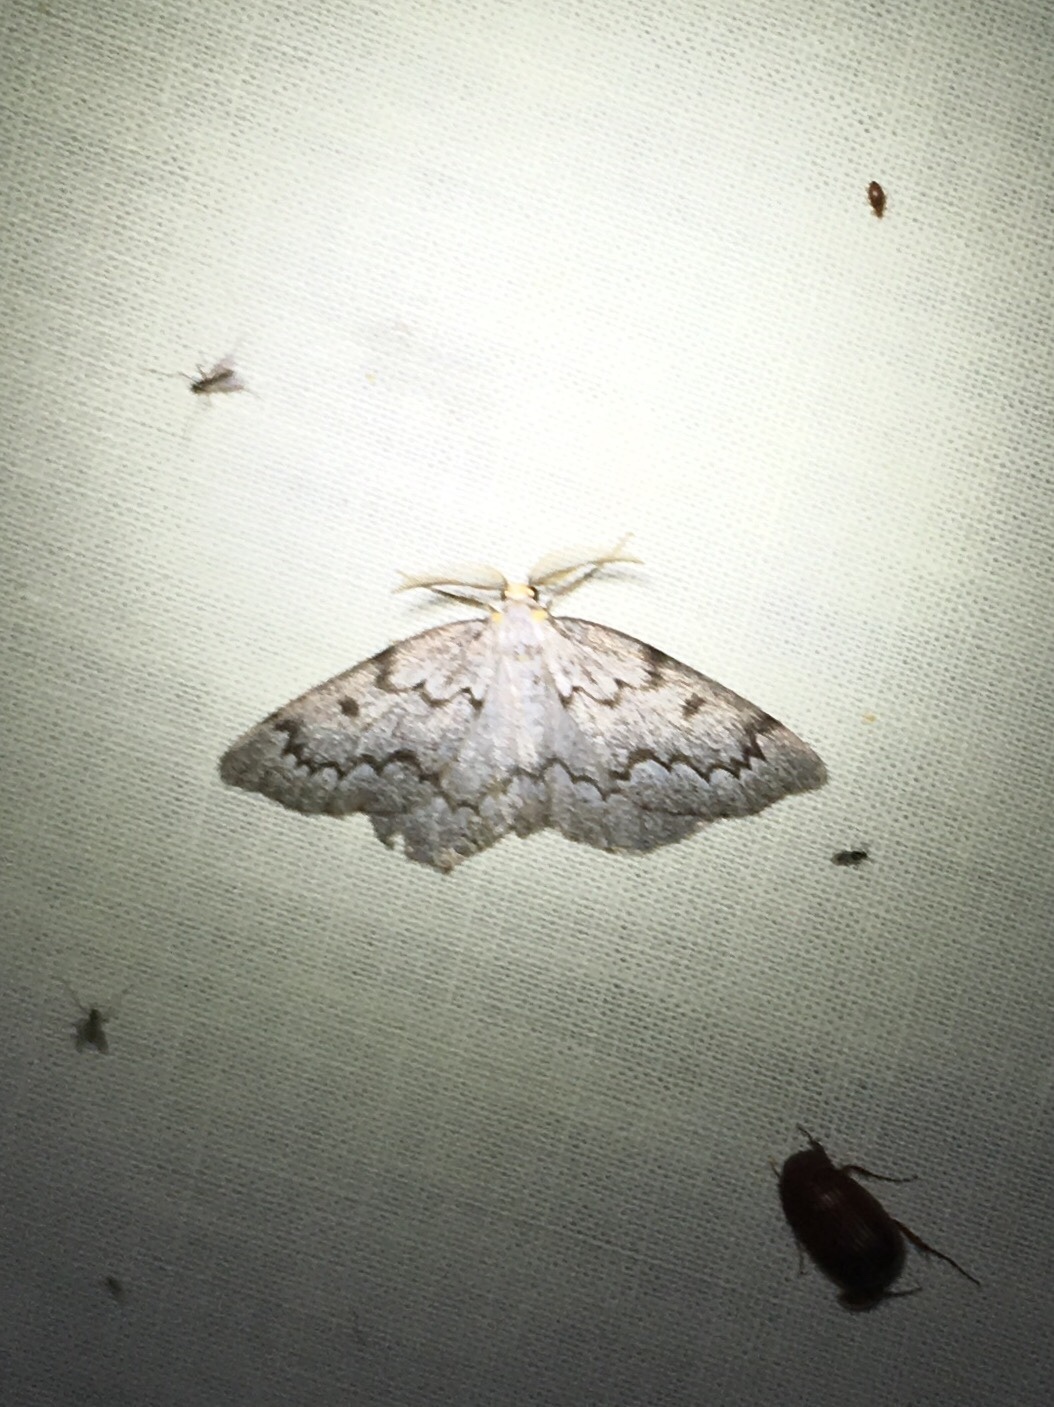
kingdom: Animalia
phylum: Arthropoda
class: Insecta
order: Lepidoptera
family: Geometridae
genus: Nepytia
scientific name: Nepytia canosaria
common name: False hemlock looper
